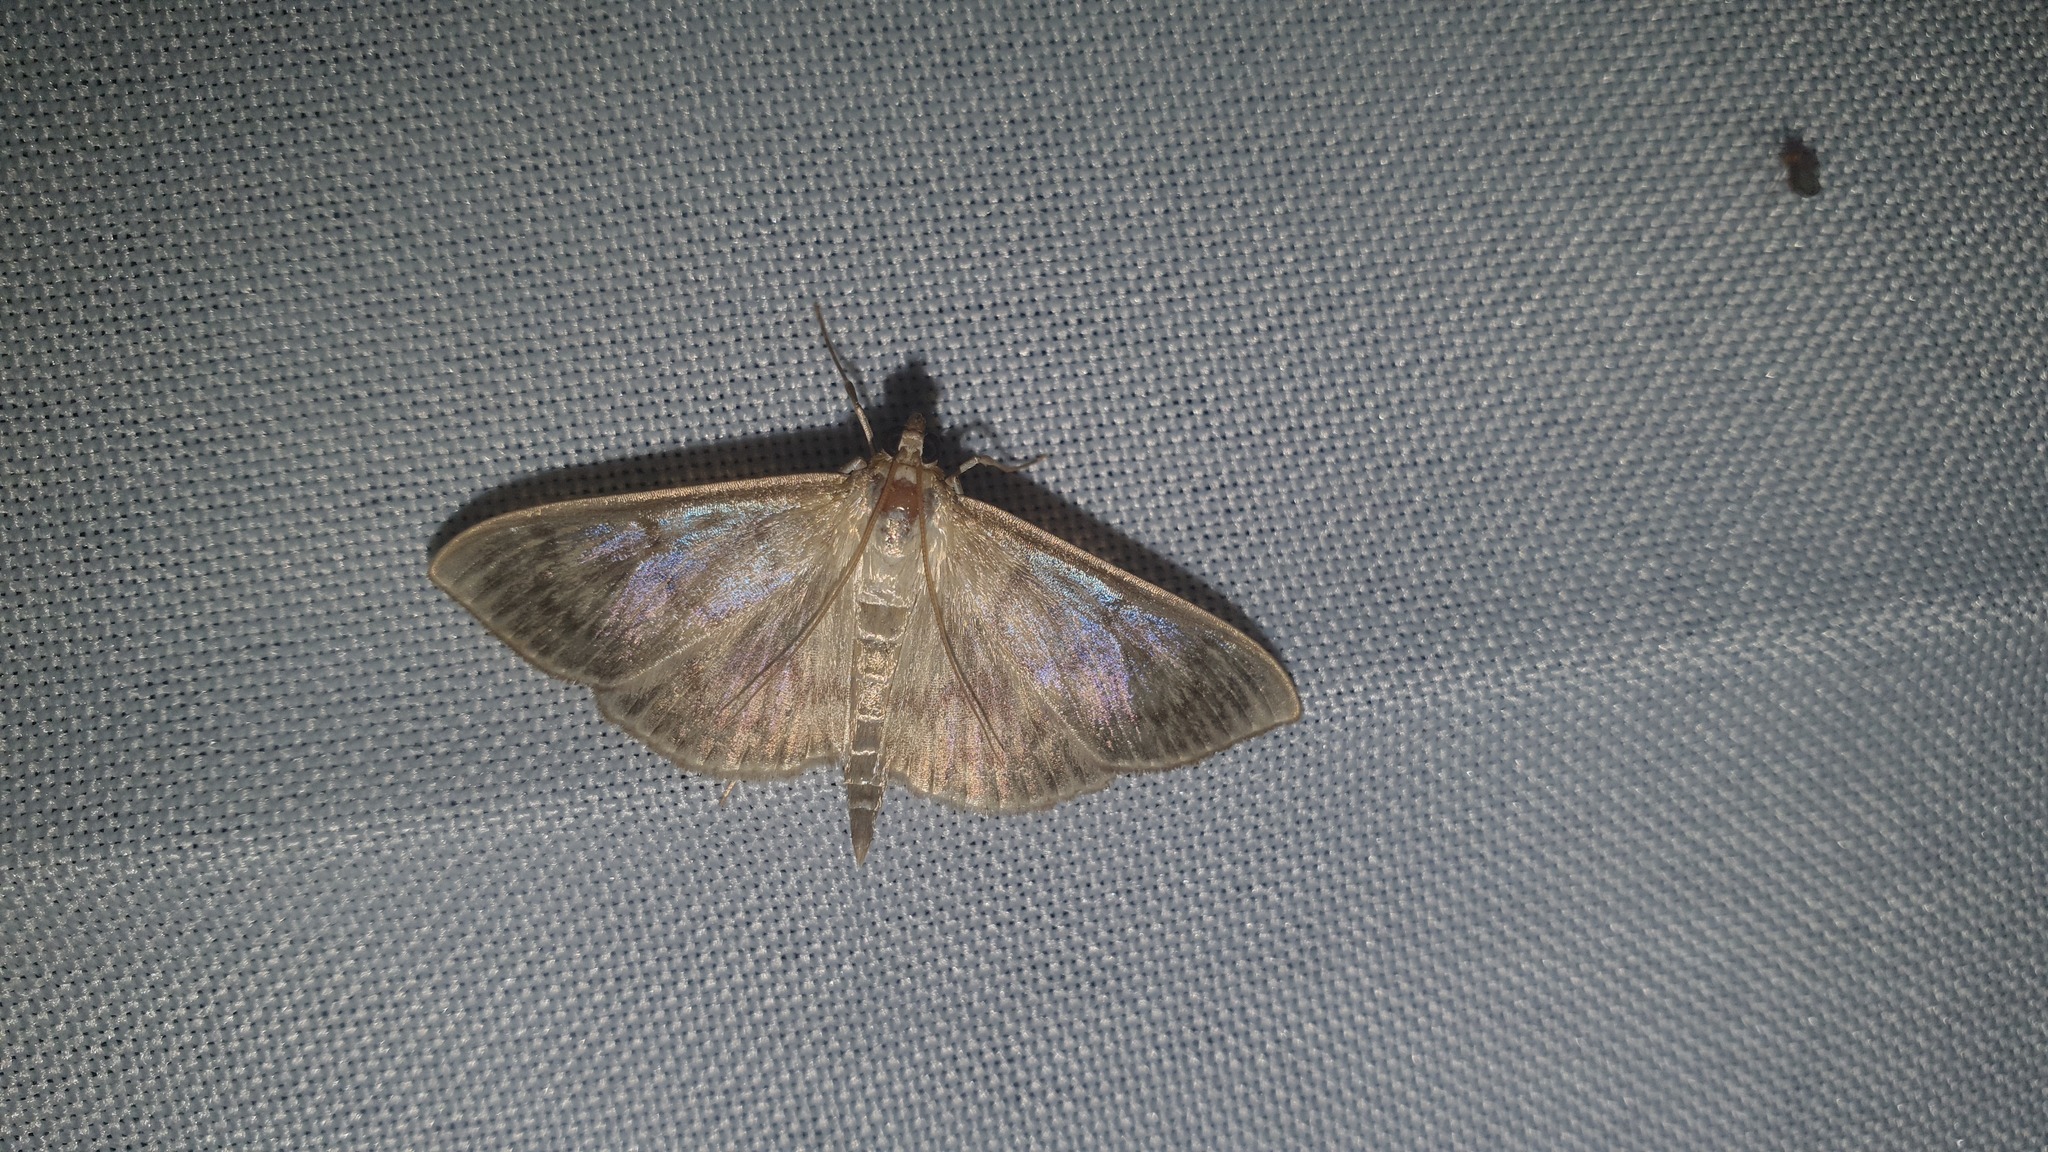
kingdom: Animalia
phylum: Arthropoda
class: Insecta
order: Lepidoptera
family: Crambidae
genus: Patania
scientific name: Patania ruralis
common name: Mother of pearl
